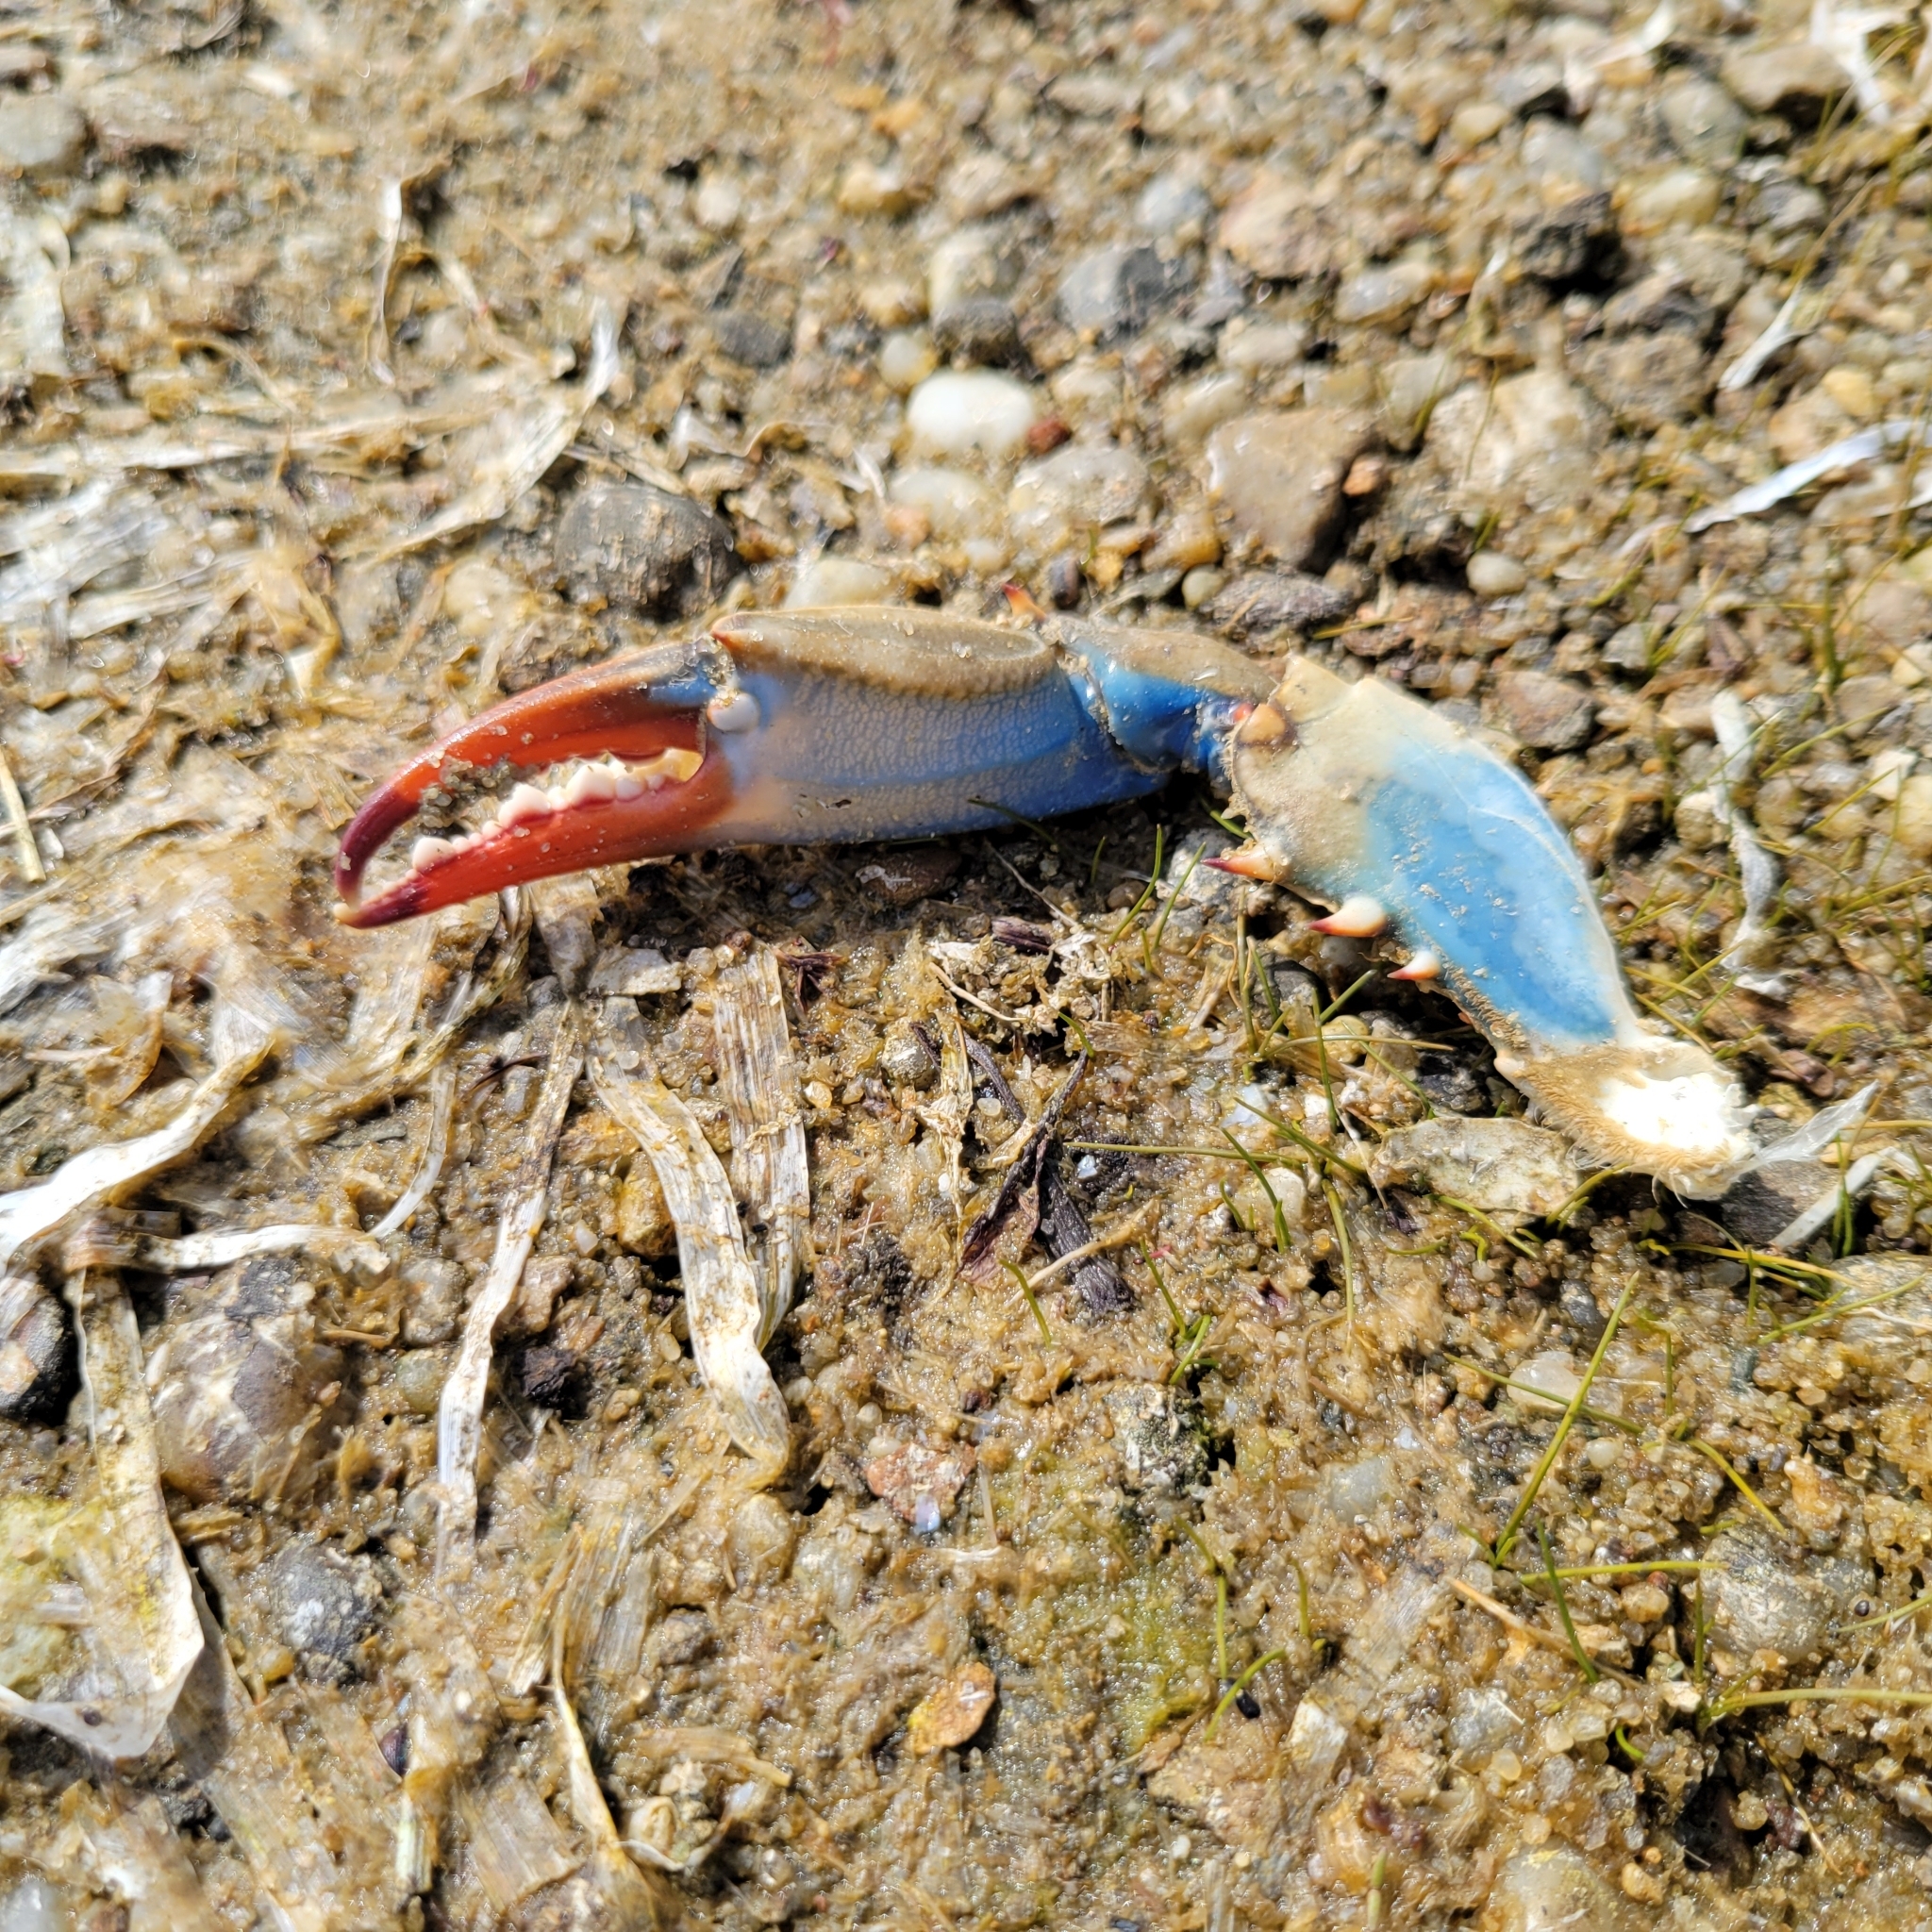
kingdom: Animalia
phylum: Arthropoda
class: Malacostraca
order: Decapoda
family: Portunidae
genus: Callinectes
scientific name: Callinectes sapidus
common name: Blue crab
